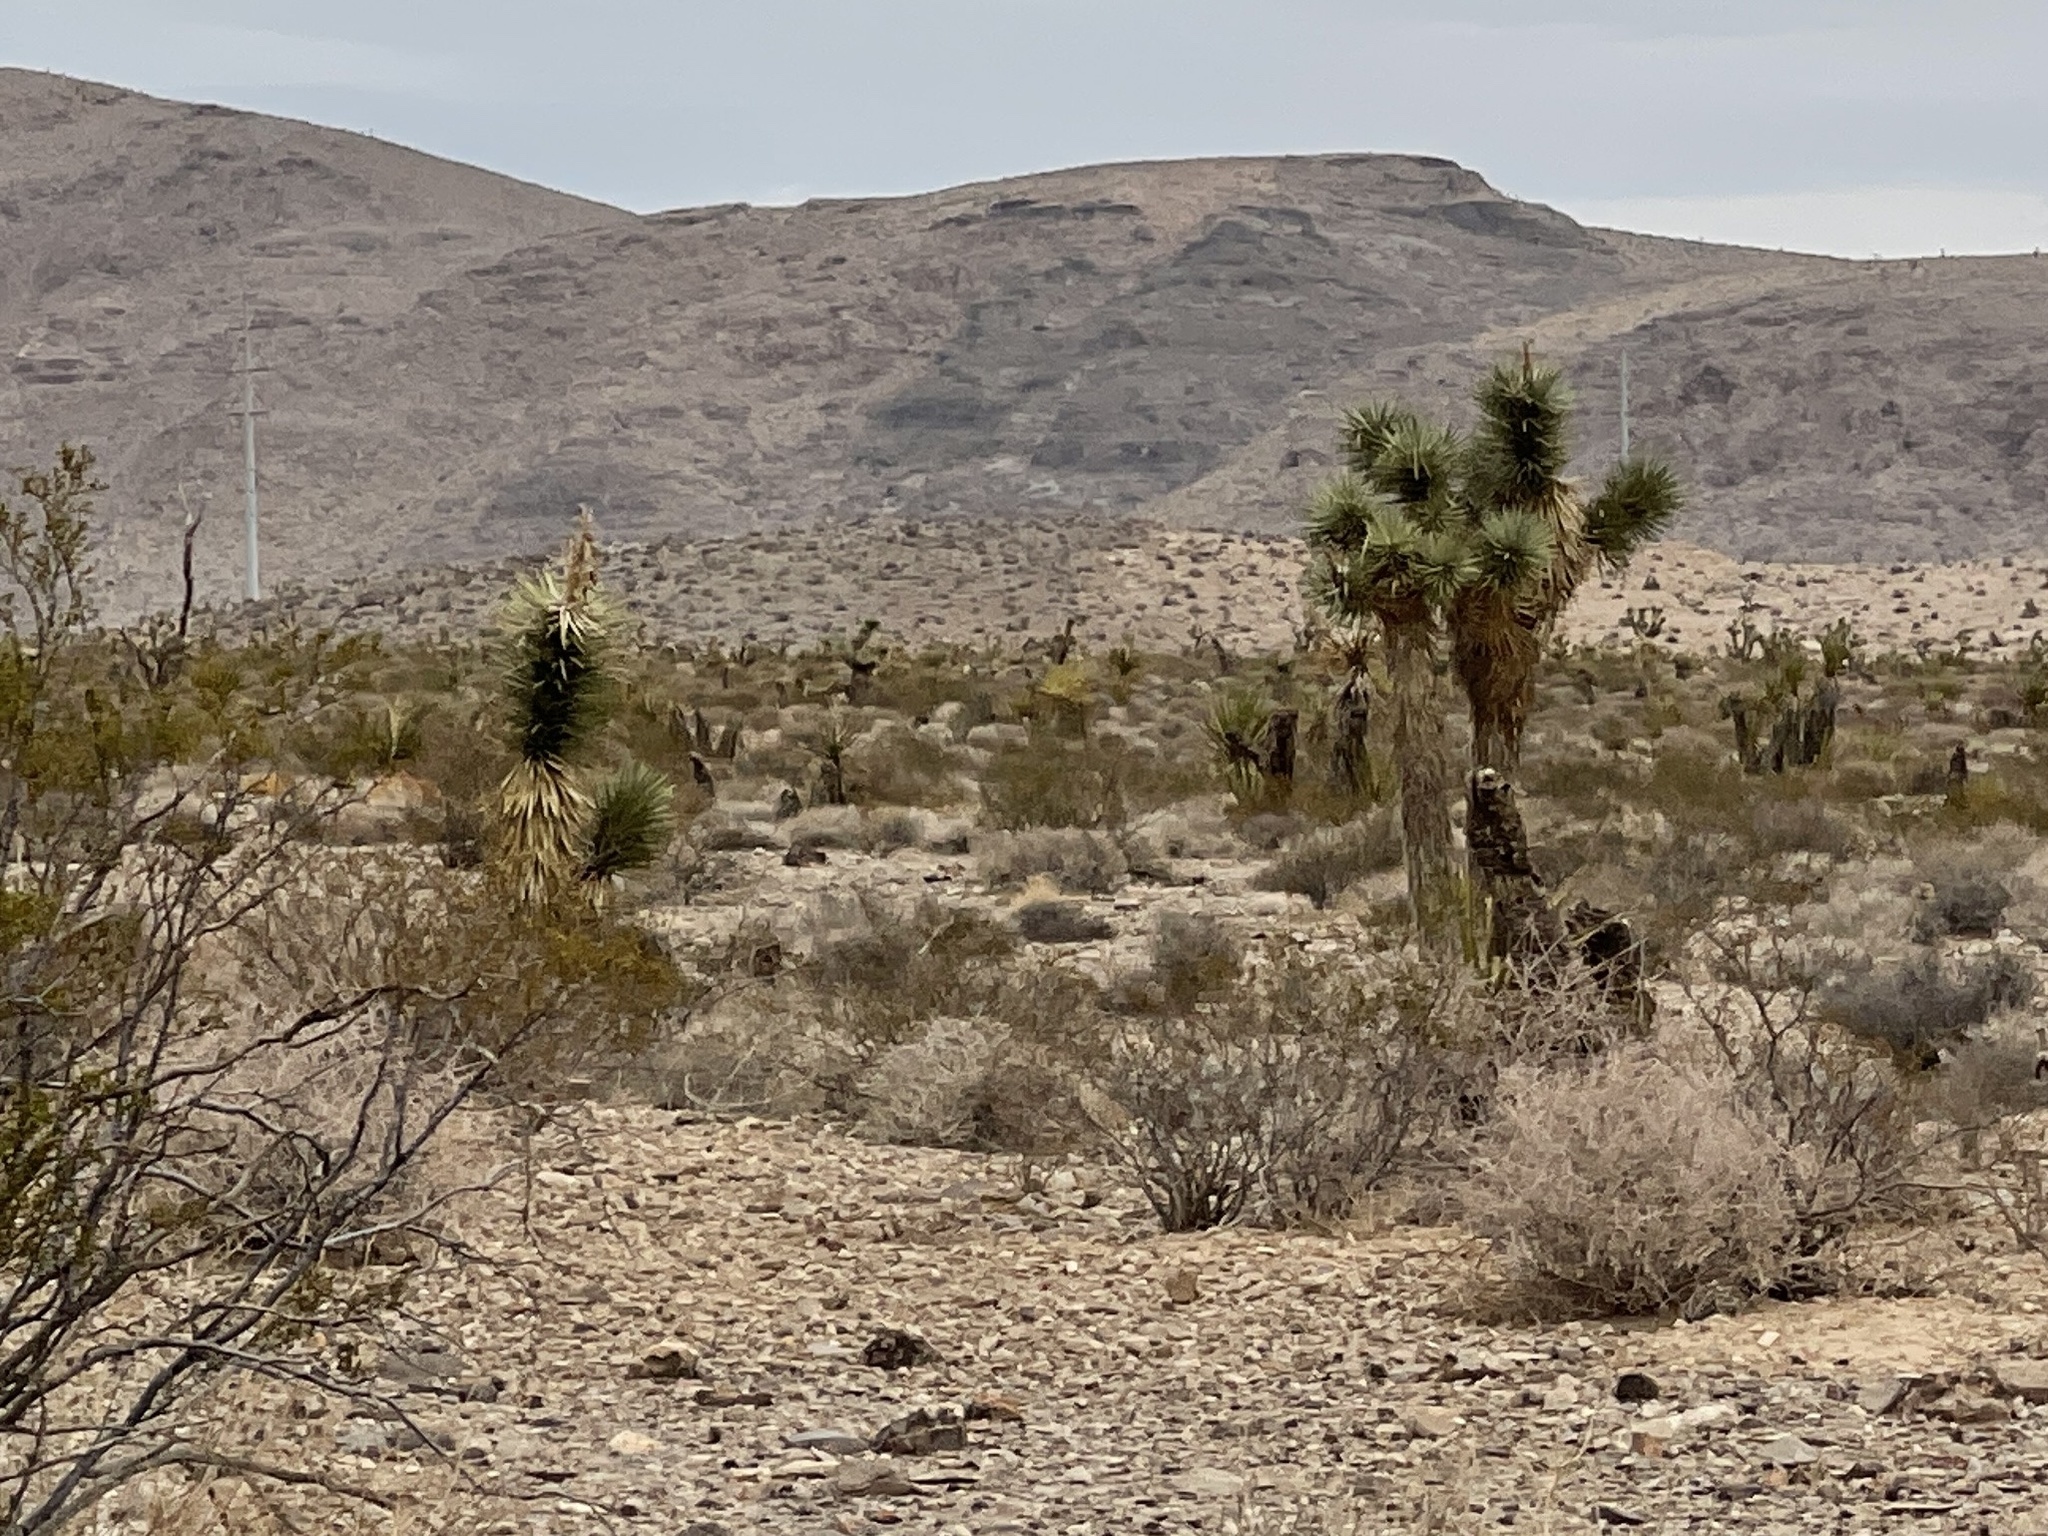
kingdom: Plantae
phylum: Tracheophyta
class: Liliopsida
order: Asparagales
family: Asparagaceae
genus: Yucca
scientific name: Yucca brevifolia
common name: Joshua tree
